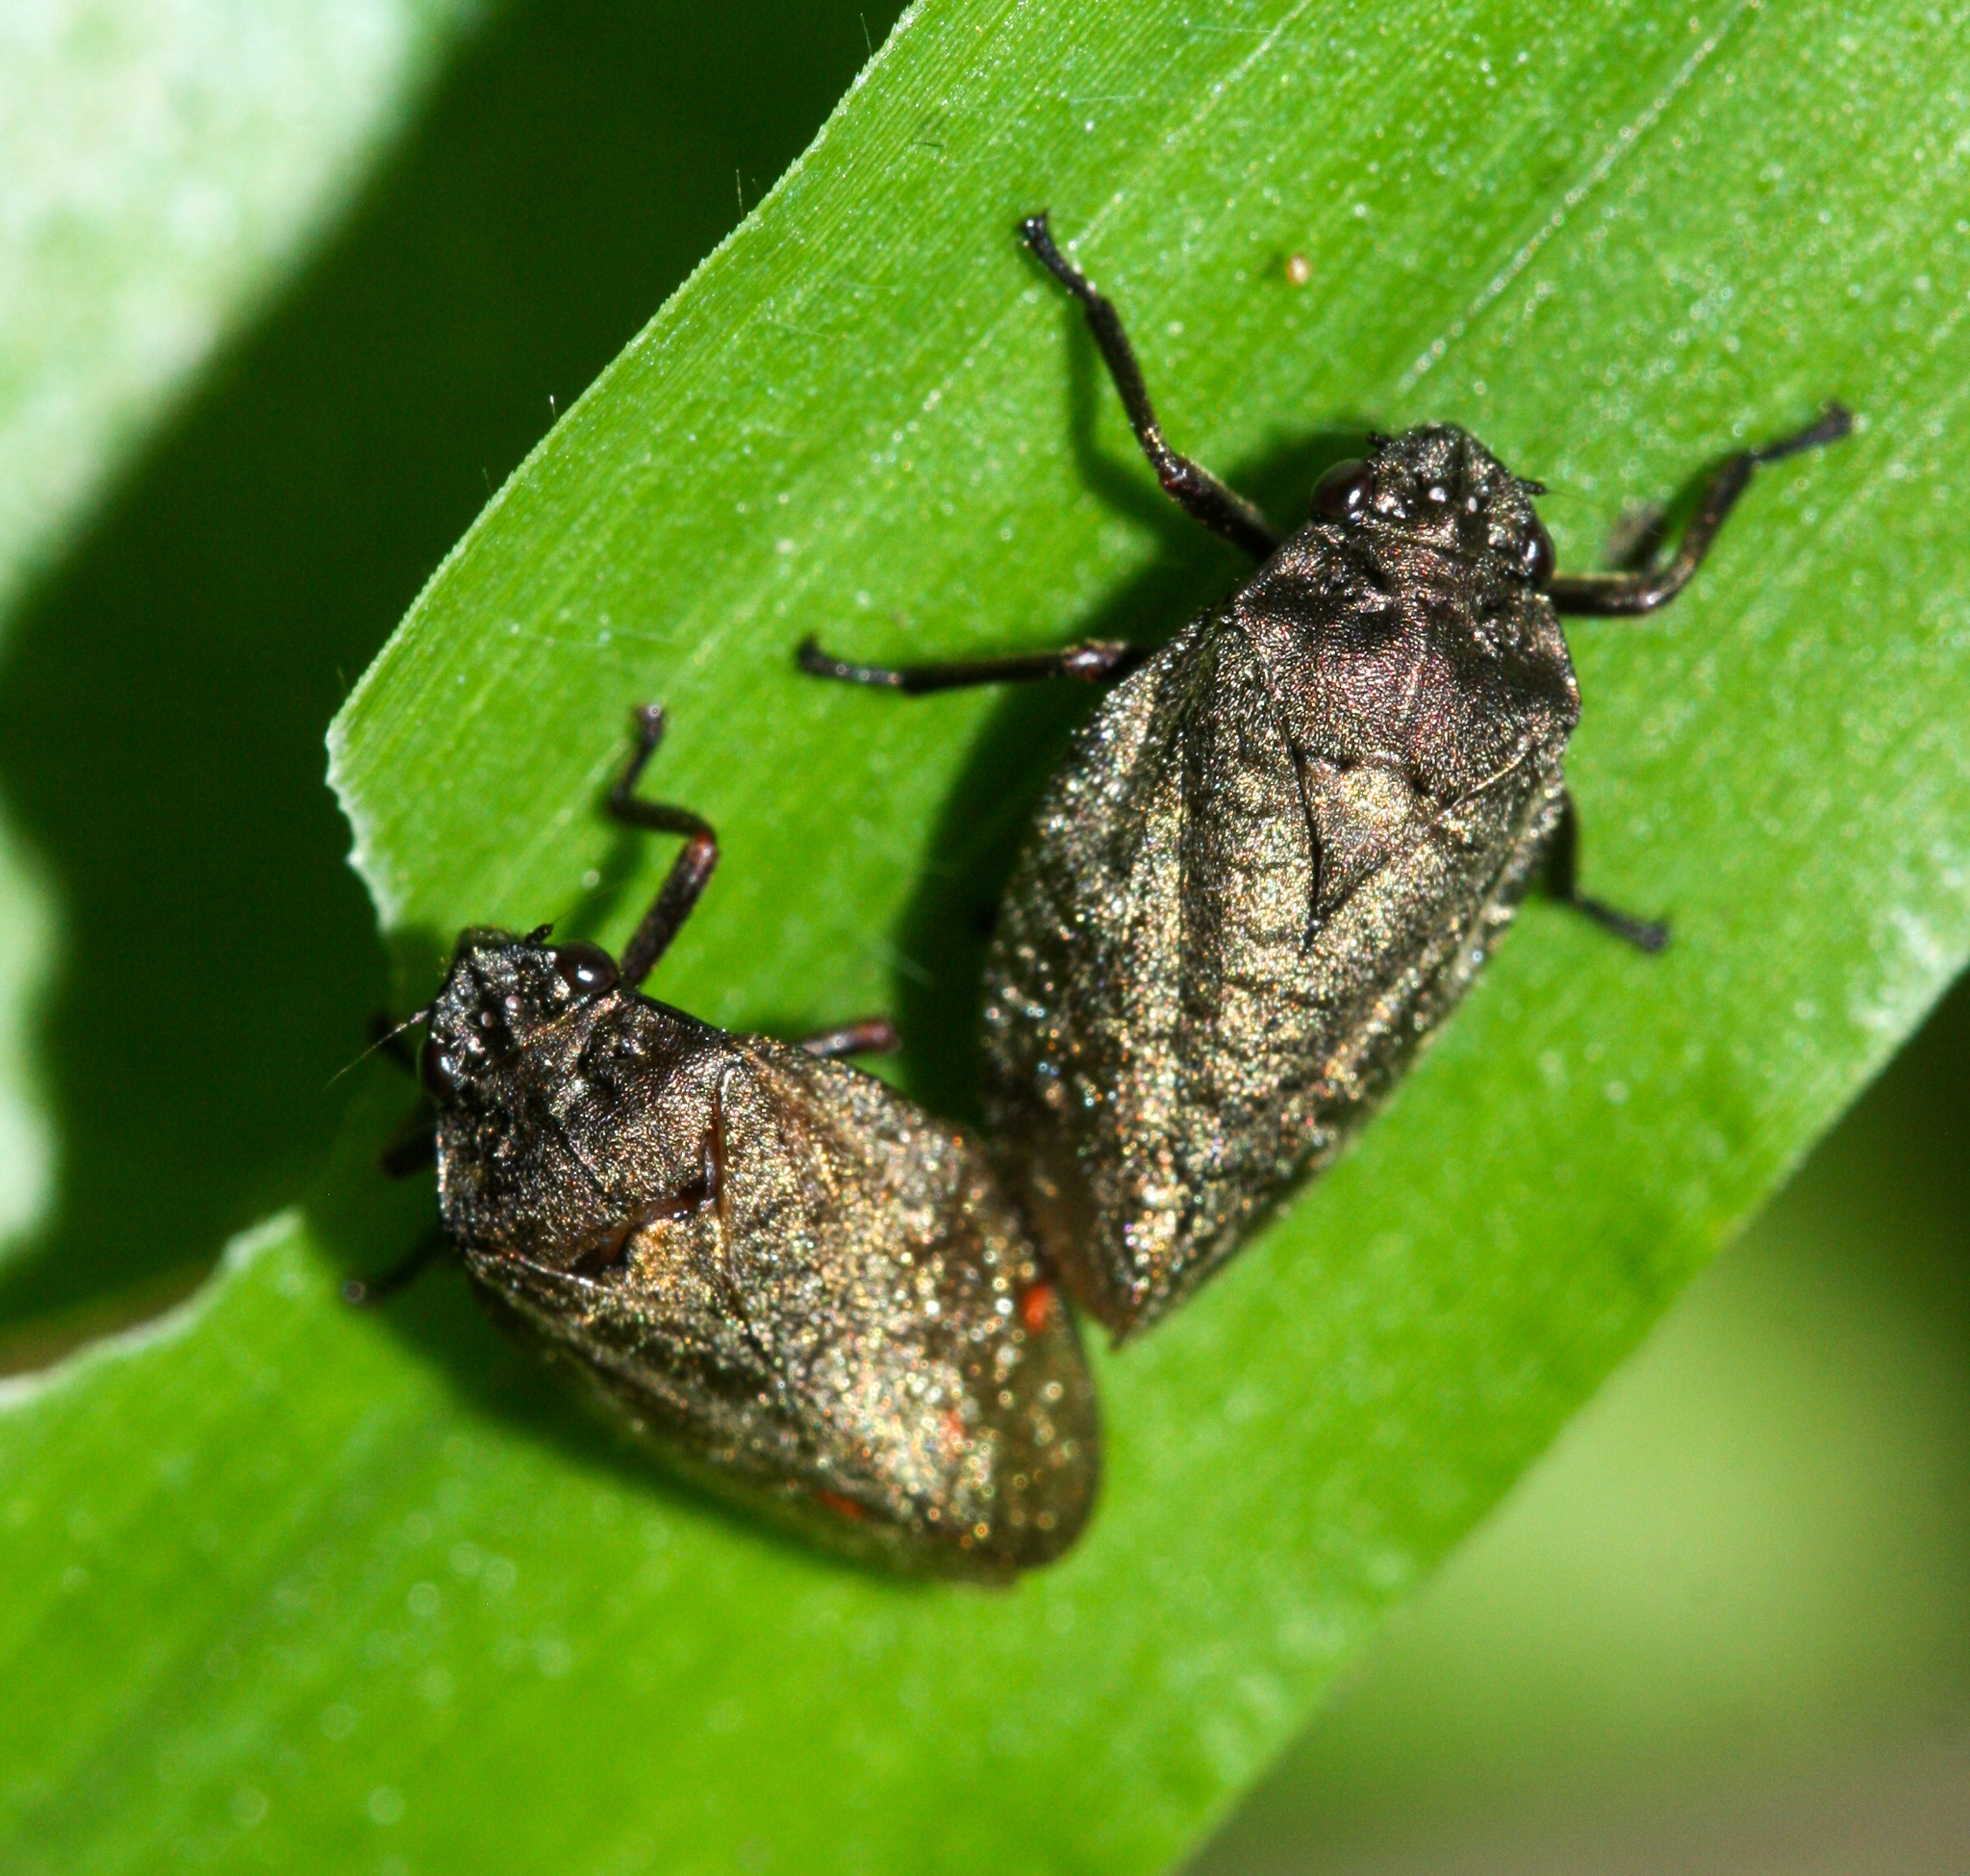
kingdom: Animalia
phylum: Arthropoda
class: Insecta
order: Hemiptera
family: Cercopidae
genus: Zulia
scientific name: Zulia pubescens
